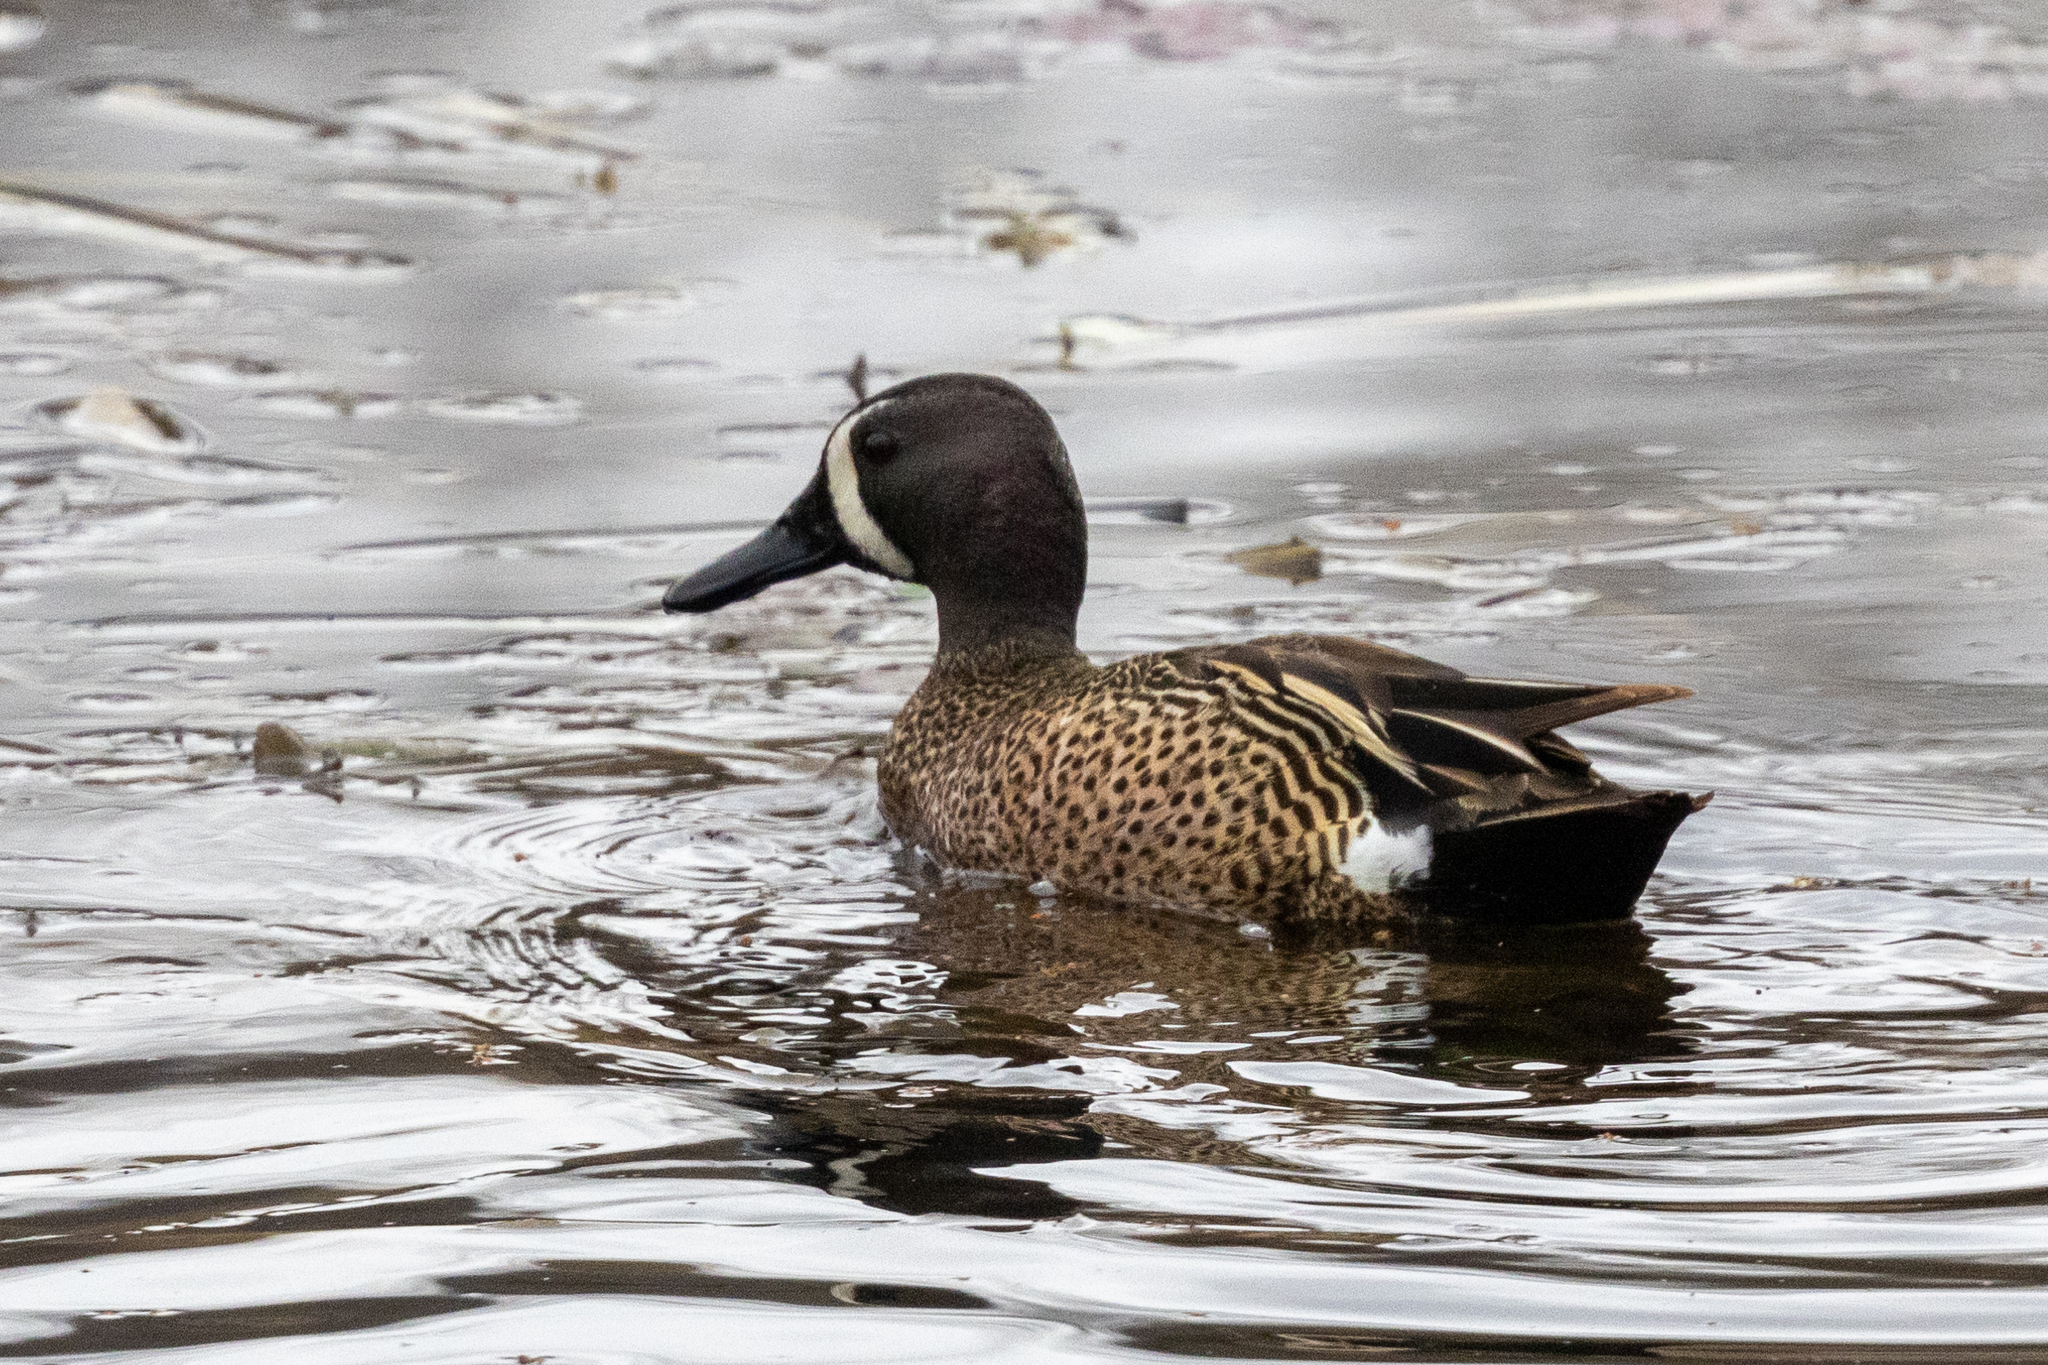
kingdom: Animalia
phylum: Chordata
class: Aves
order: Anseriformes
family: Anatidae
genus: Spatula
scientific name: Spatula discors
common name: Blue-winged teal
